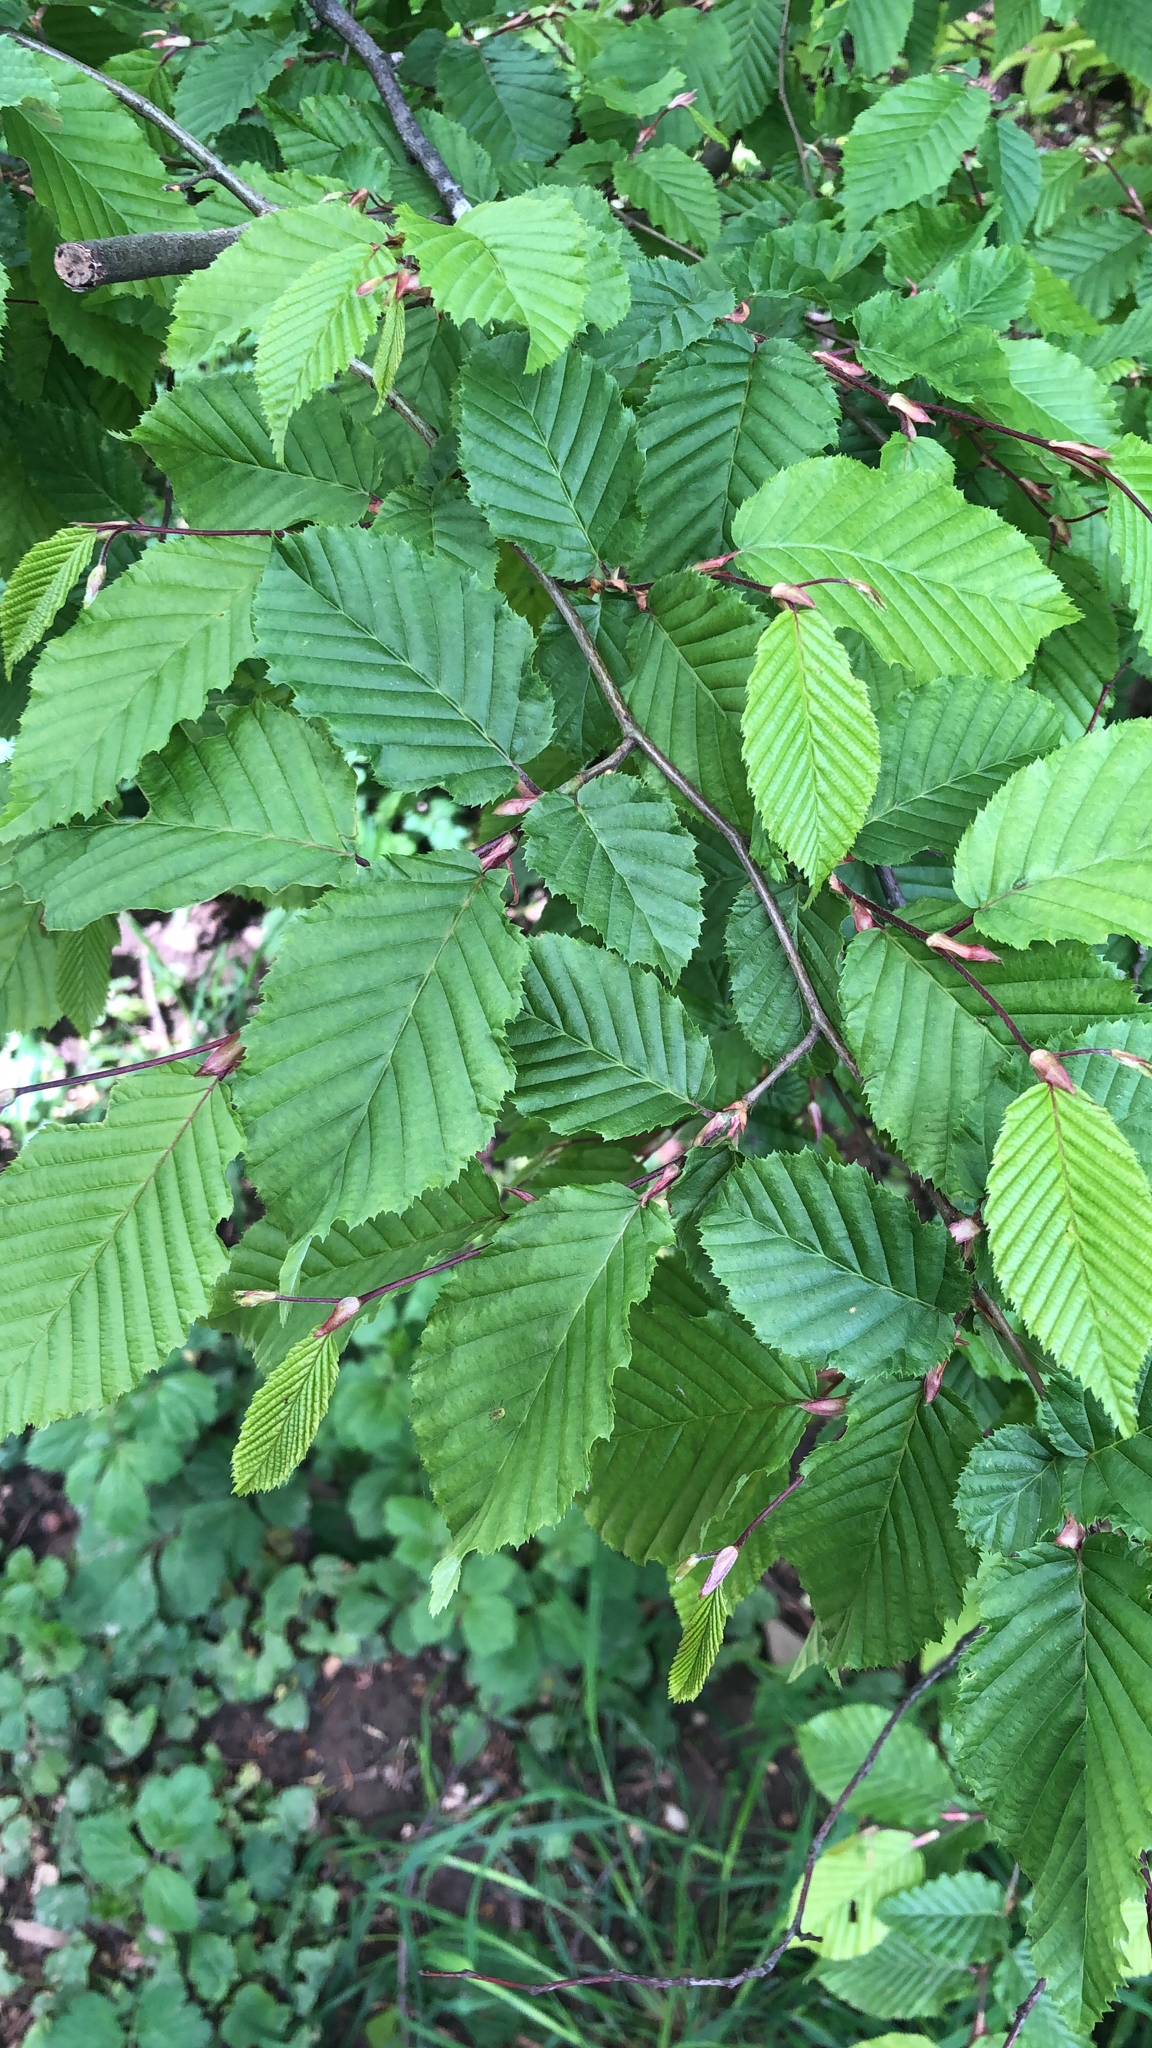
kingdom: Plantae
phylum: Tracheophyta
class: Magnoliopsida
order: Fagales
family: Betulaceae
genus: Carpinus
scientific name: Carpinus betulus
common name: Hornbeam
